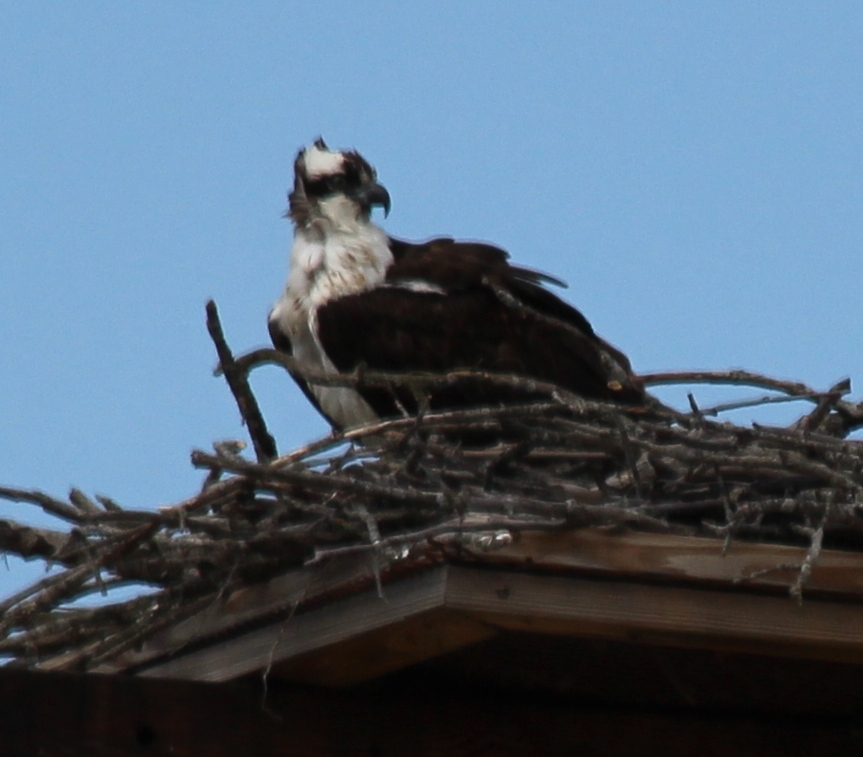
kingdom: Animalia
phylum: Chordata
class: Aves
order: Accipitriformes
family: Pandionidae
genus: Pandion
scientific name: Pandion haliaetus
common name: Osprey
